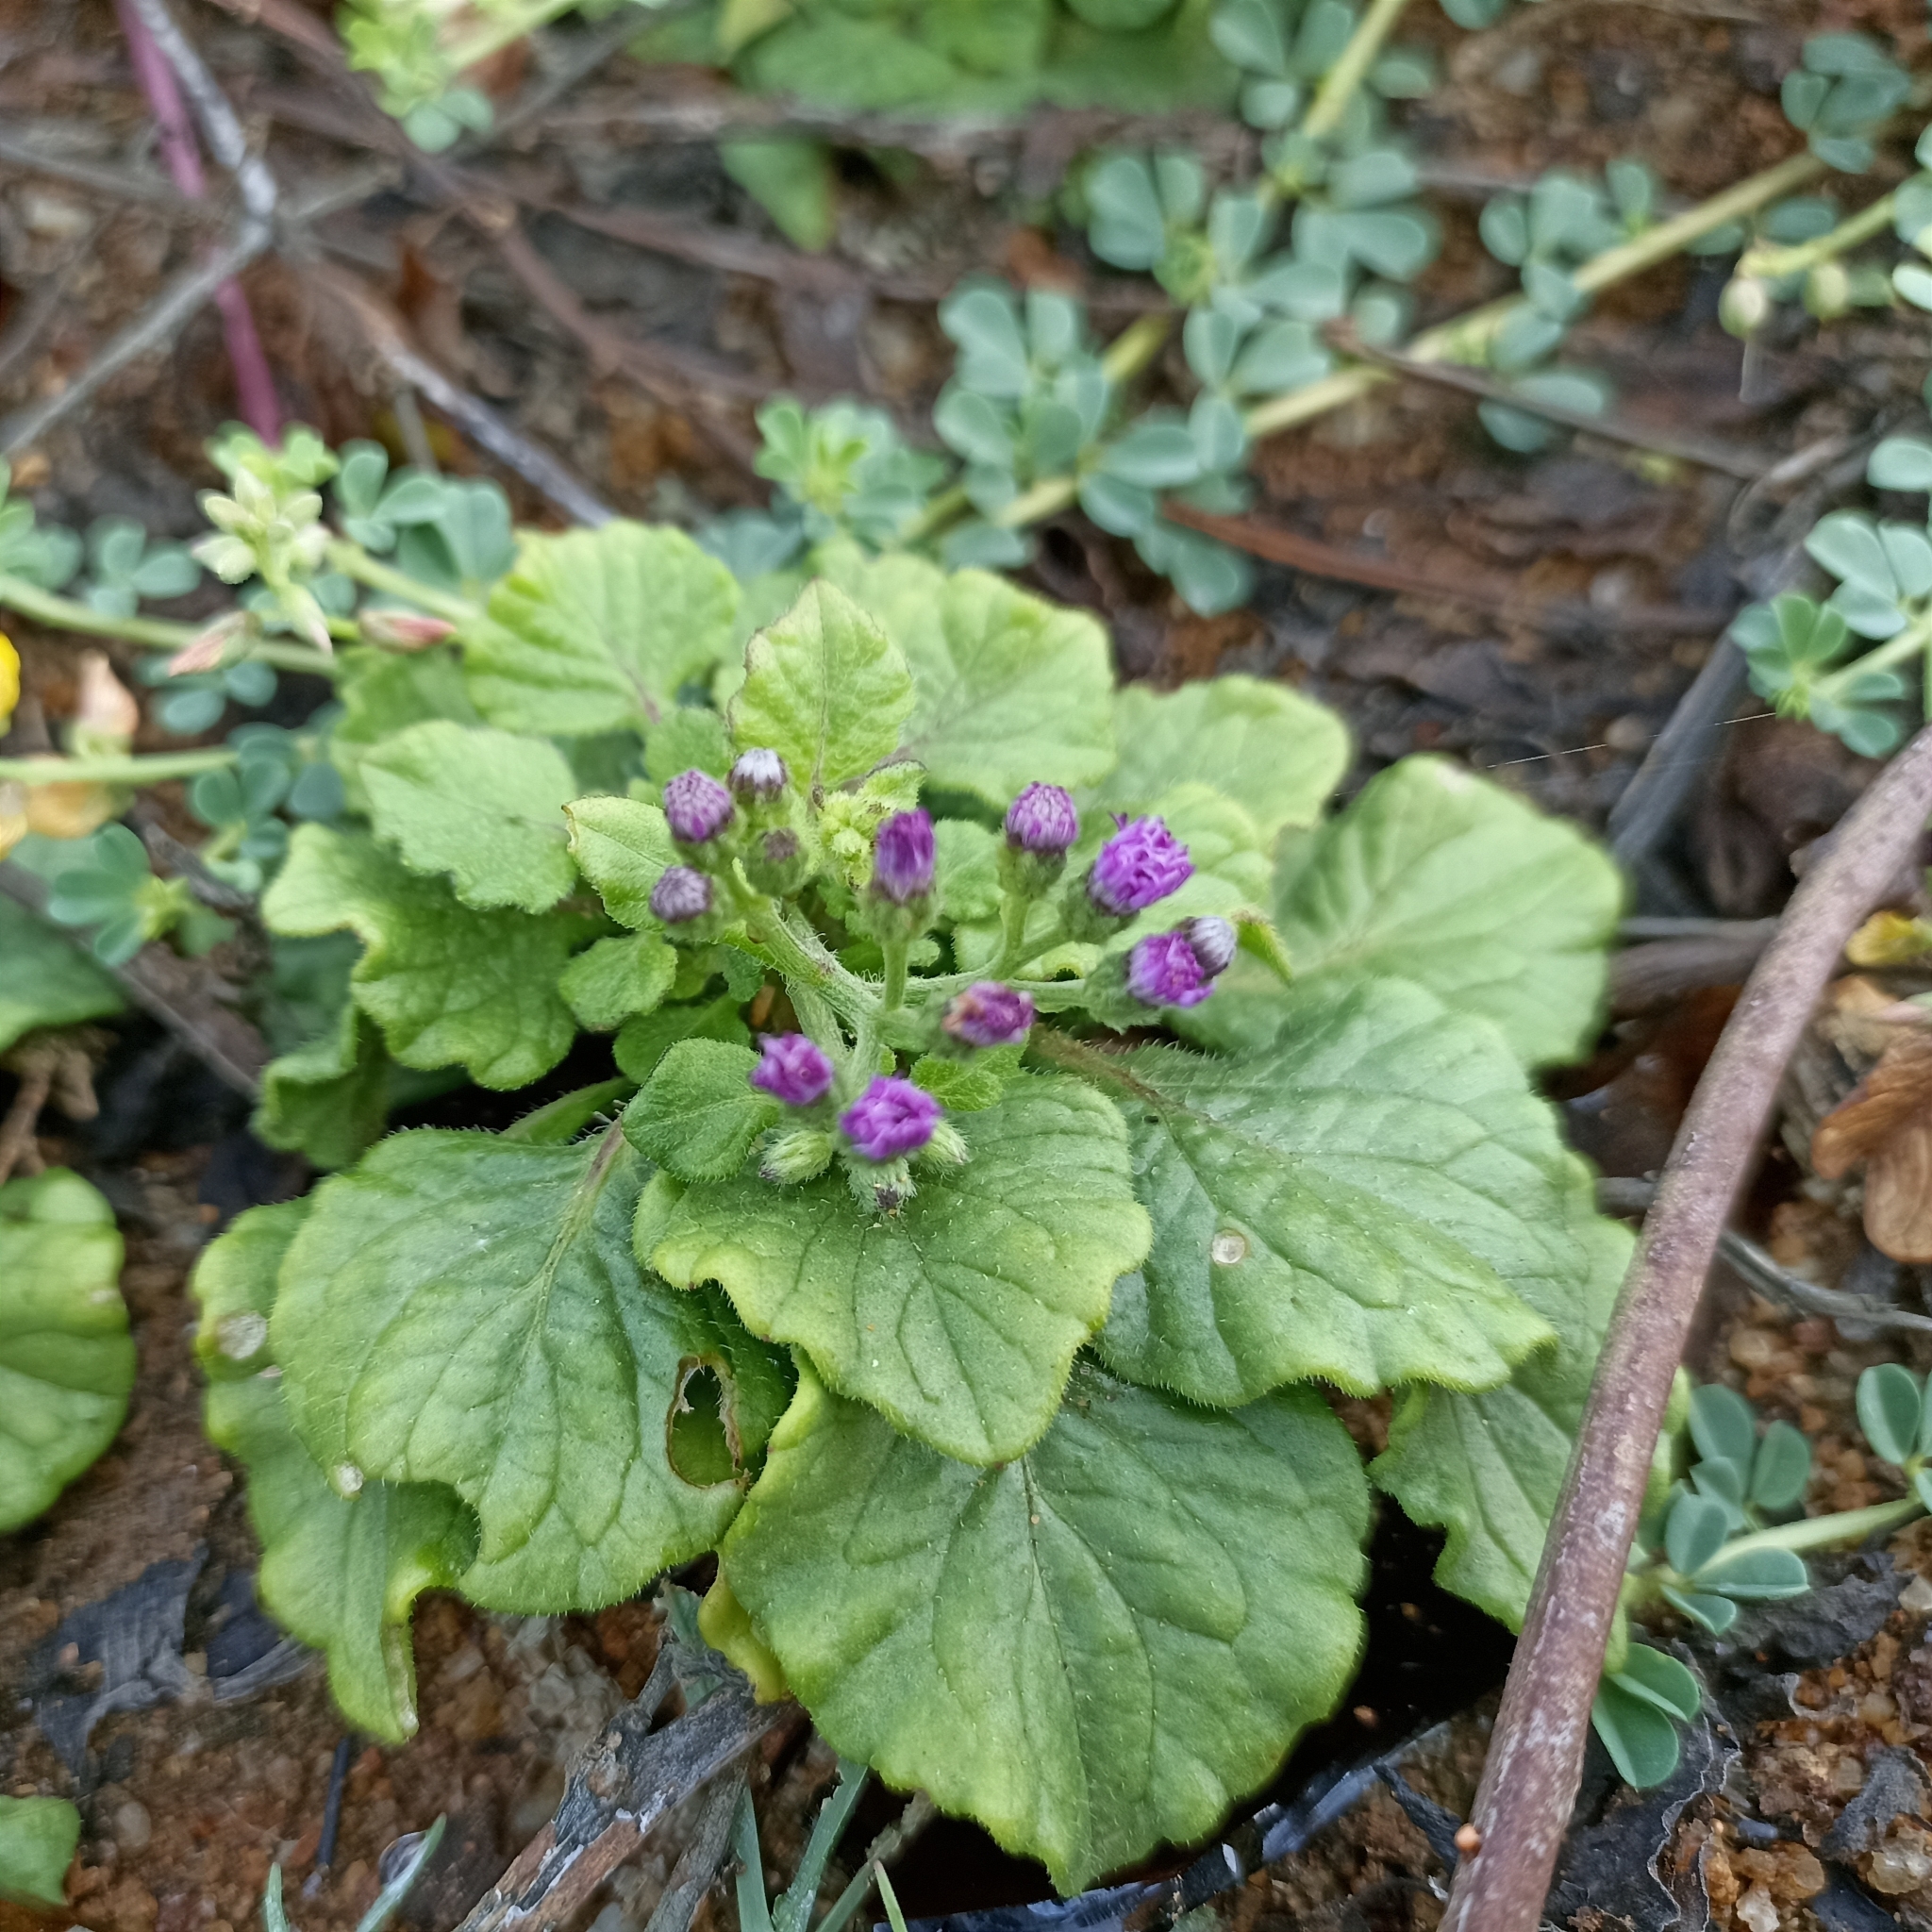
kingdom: Plantae
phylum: Tracheophyta
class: Magnoliopsida
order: Asterales
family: Asteraceae
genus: Cyanthillium
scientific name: Cyanthillium cinereum
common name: Little ironweed
